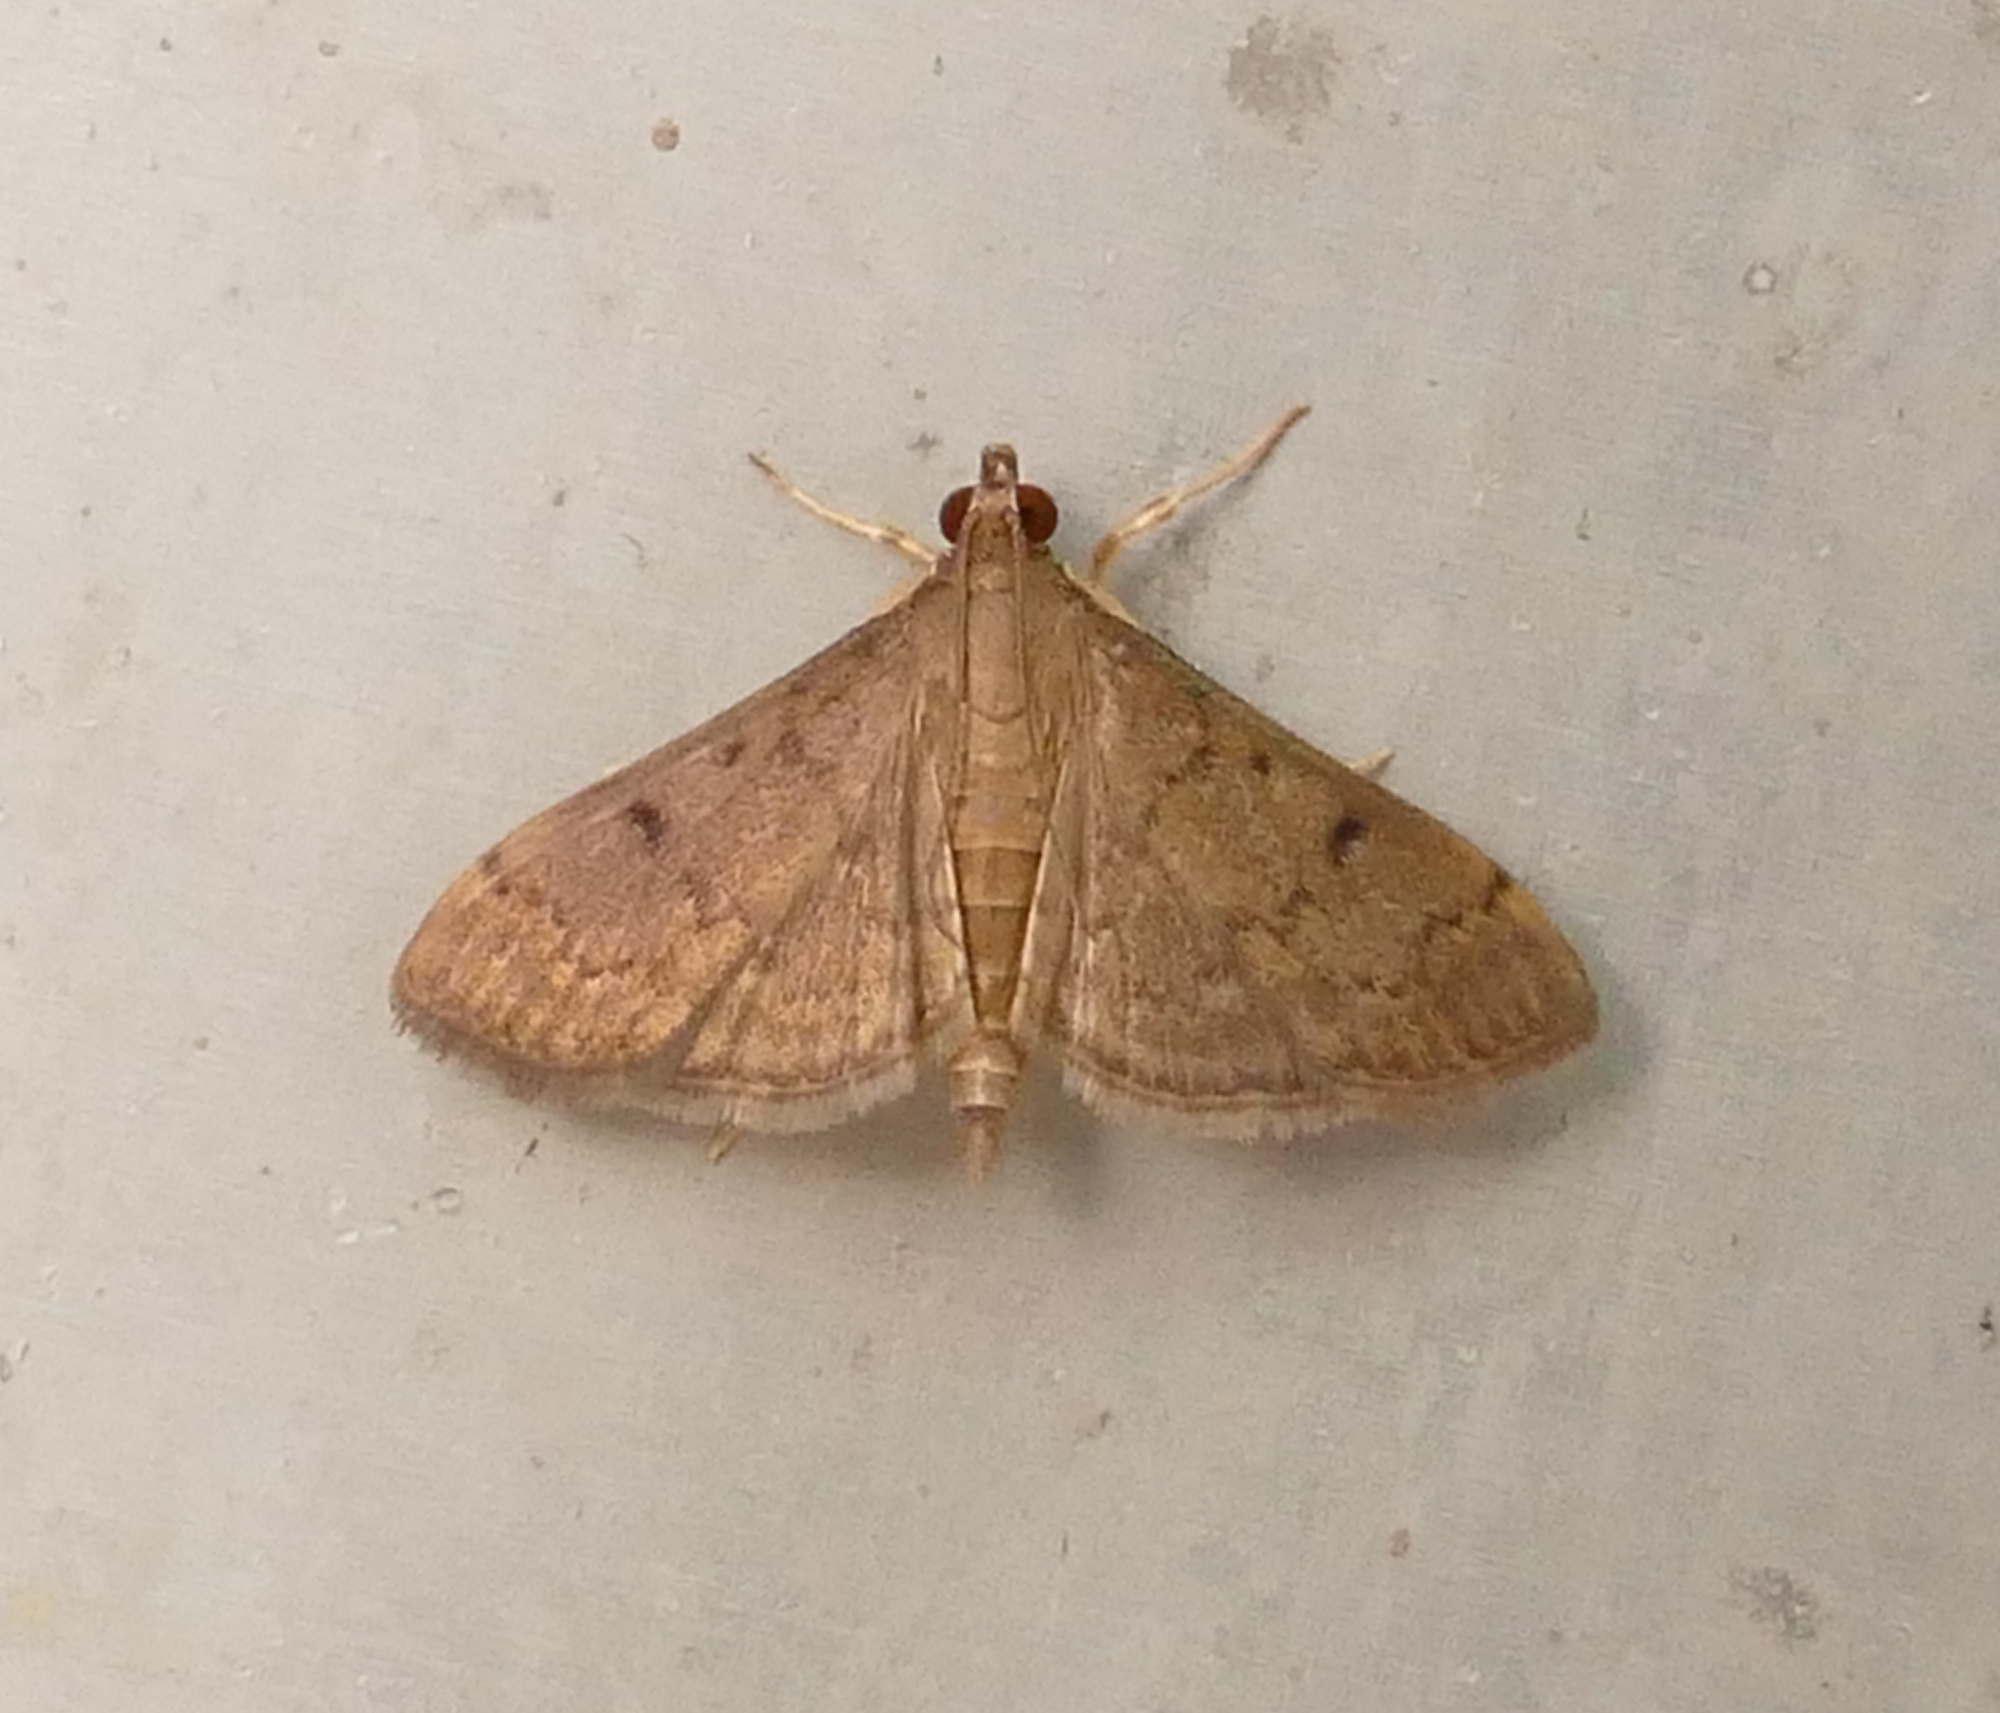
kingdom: Animalia
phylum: Arthropoda
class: Insecta
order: Lepidoptera
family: Crambidae
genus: Herpetogramma
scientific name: Herpetogramma phaeopteralis
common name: Dusky herpetogramma moth
